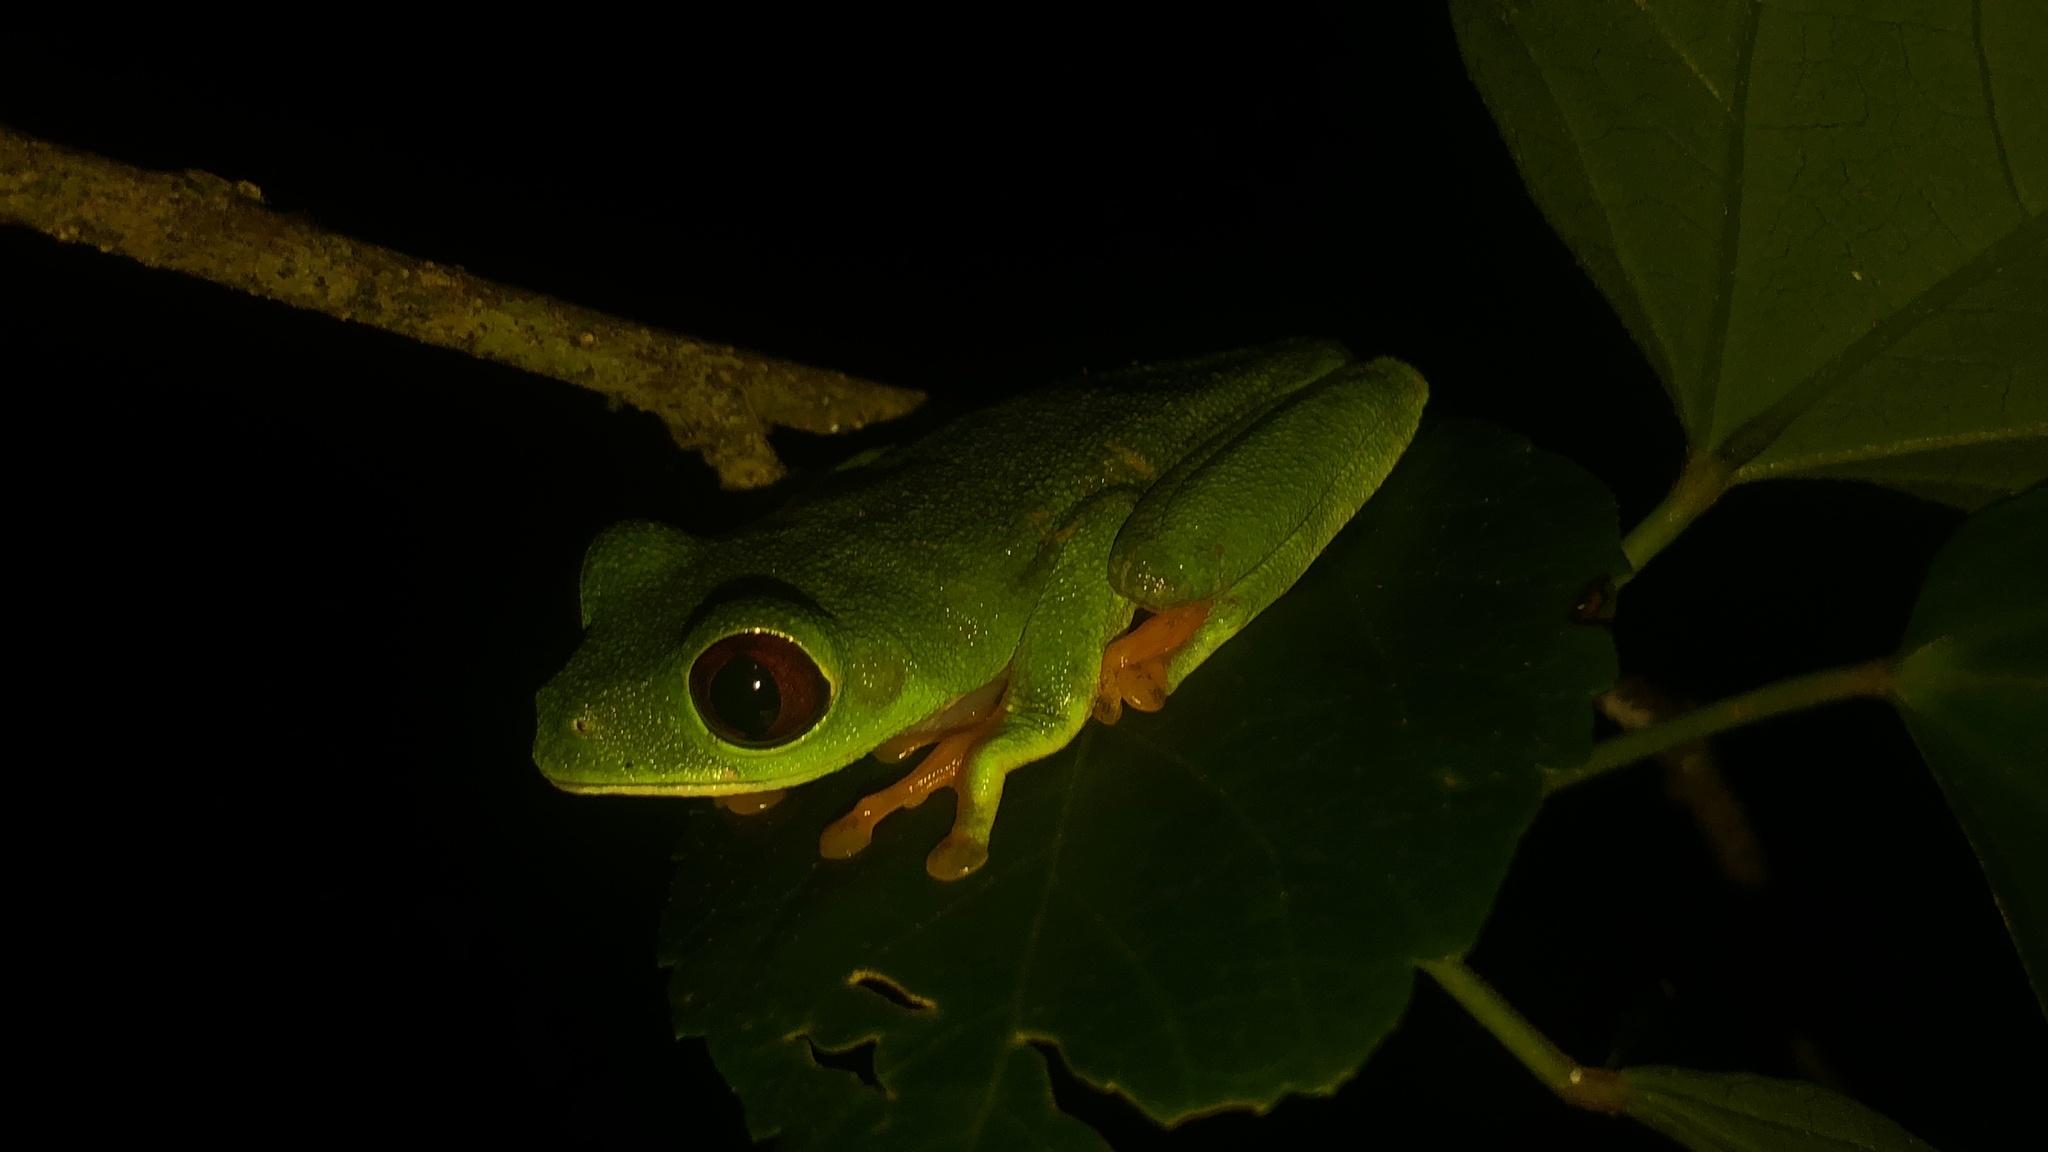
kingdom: Animalia
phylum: Chordata
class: Amphibia
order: Anura
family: Phyllomedusidae
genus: Agalychnis
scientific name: Agalychnis callidryas
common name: Red-eyed treefrog
